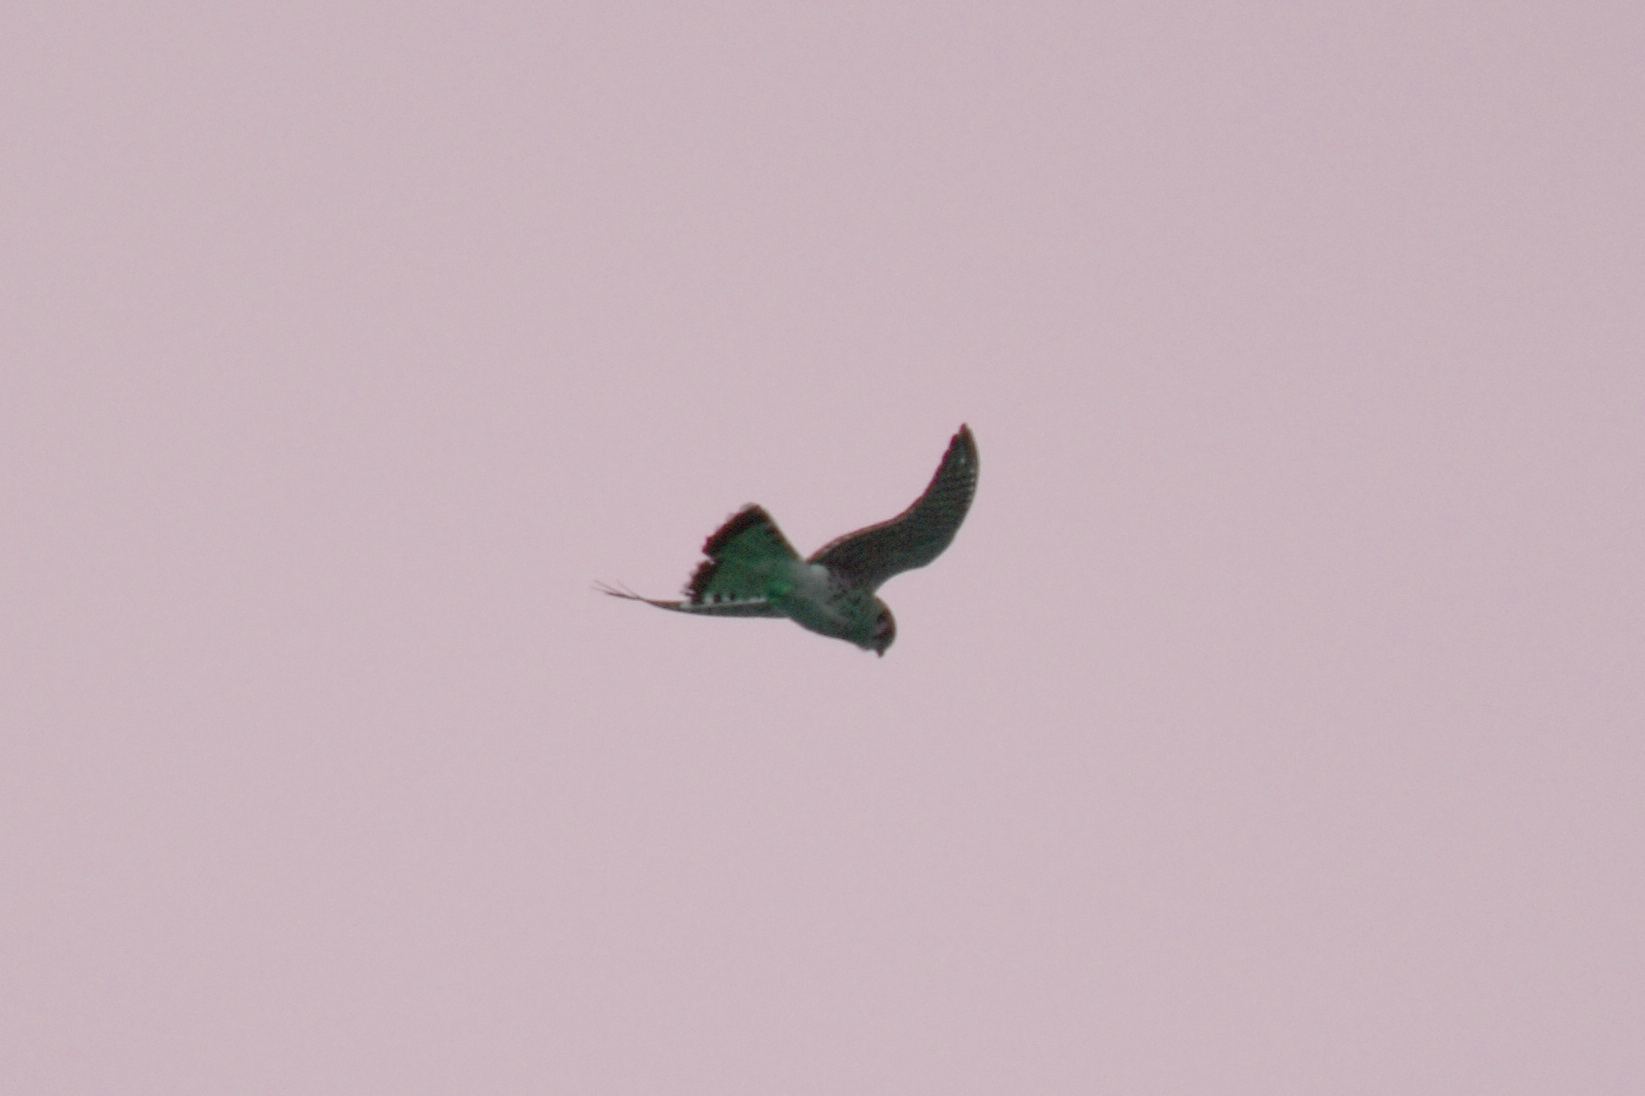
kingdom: Animalia
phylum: Chordata
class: Aves
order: Falconiformes
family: Falconidae
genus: Falco
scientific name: Falco sparverius
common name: American kestrel
